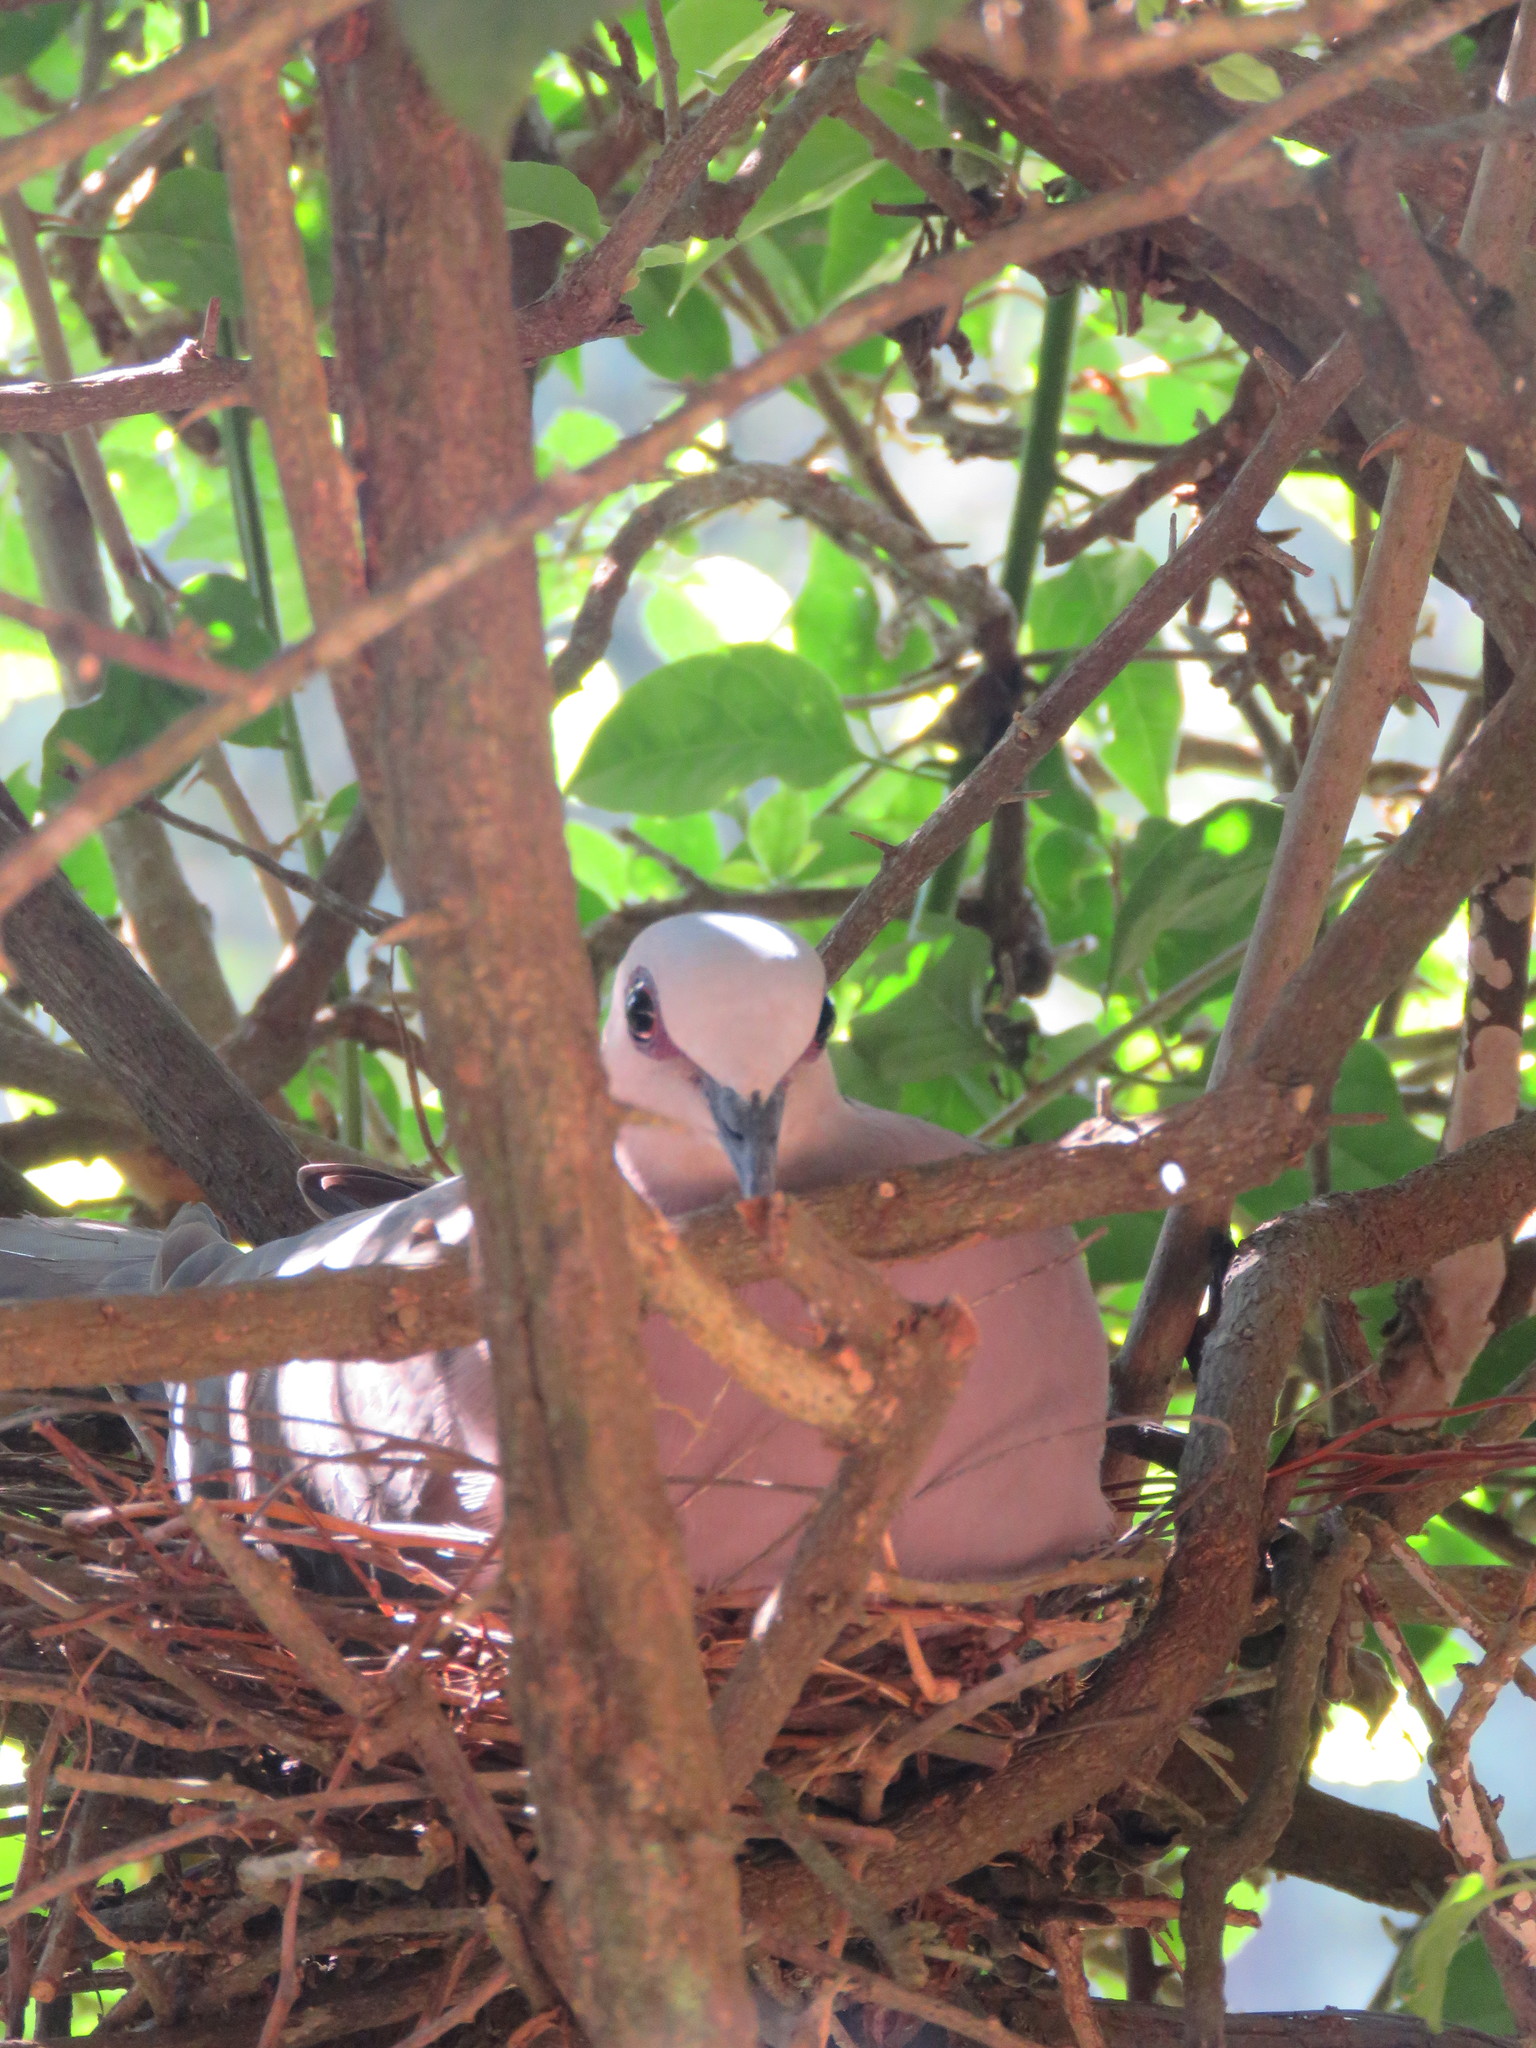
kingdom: Animalia
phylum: Chordata
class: Aves
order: Columbiformes
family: Columbidae
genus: Streptopelia
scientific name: Streptopelia semitorquata
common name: Red-eyed dove
